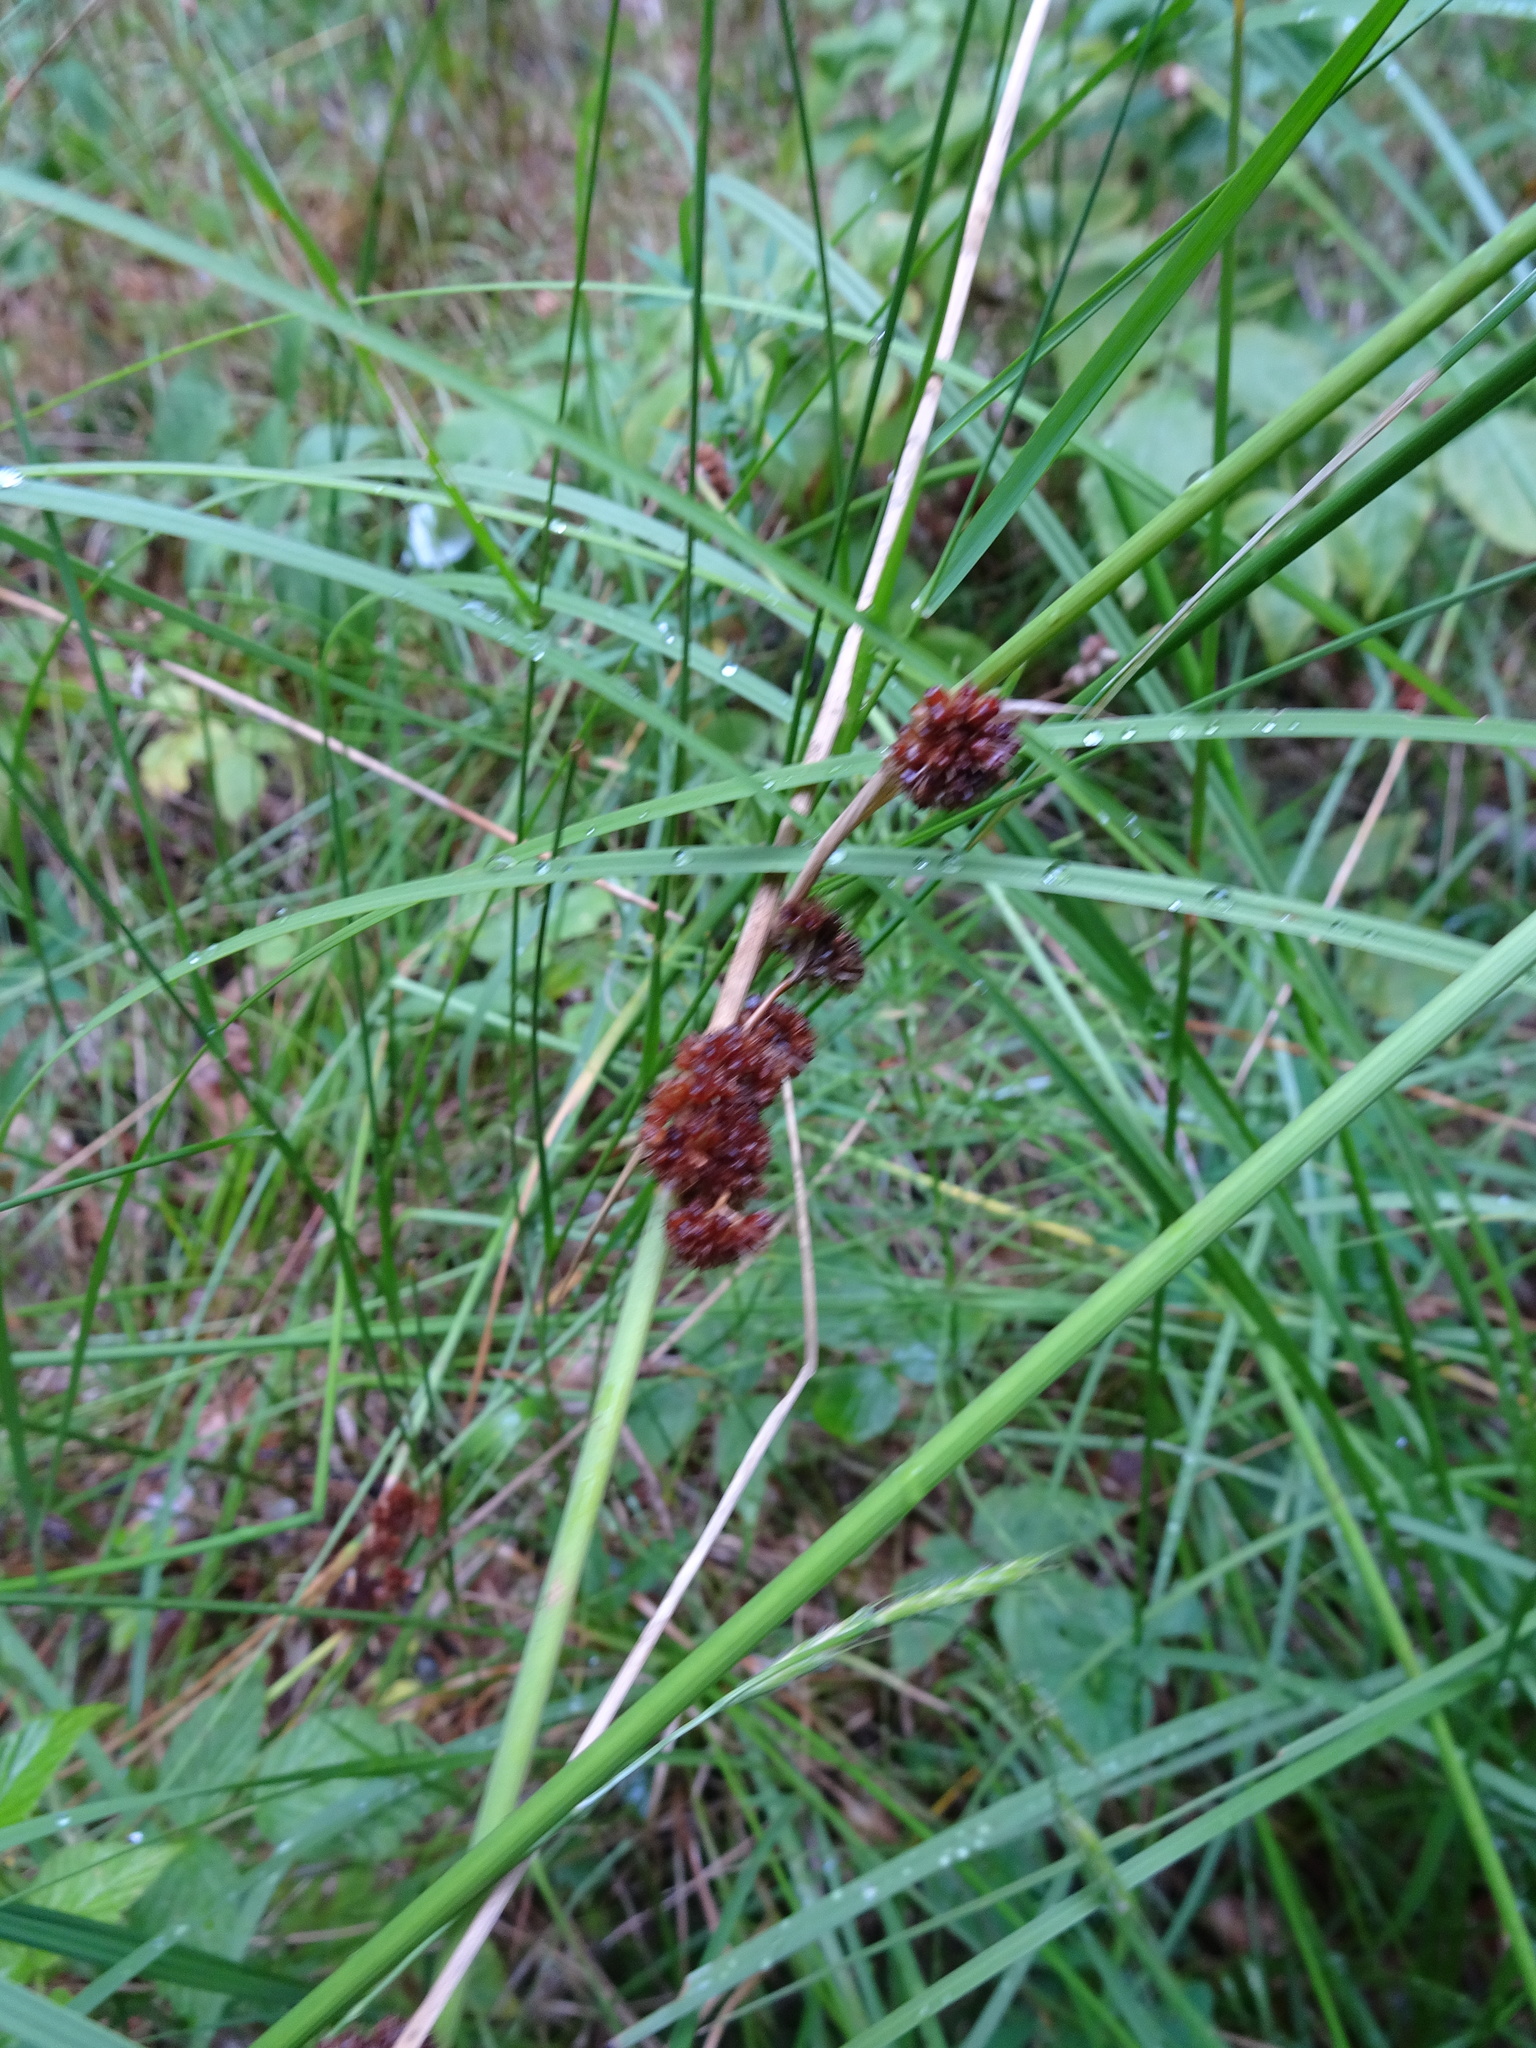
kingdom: Plantae
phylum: Tracheophyta
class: Liliopsida
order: Poales
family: Juncaceae
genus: Juncus
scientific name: Juncus conglomeratus
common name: Compact rush
